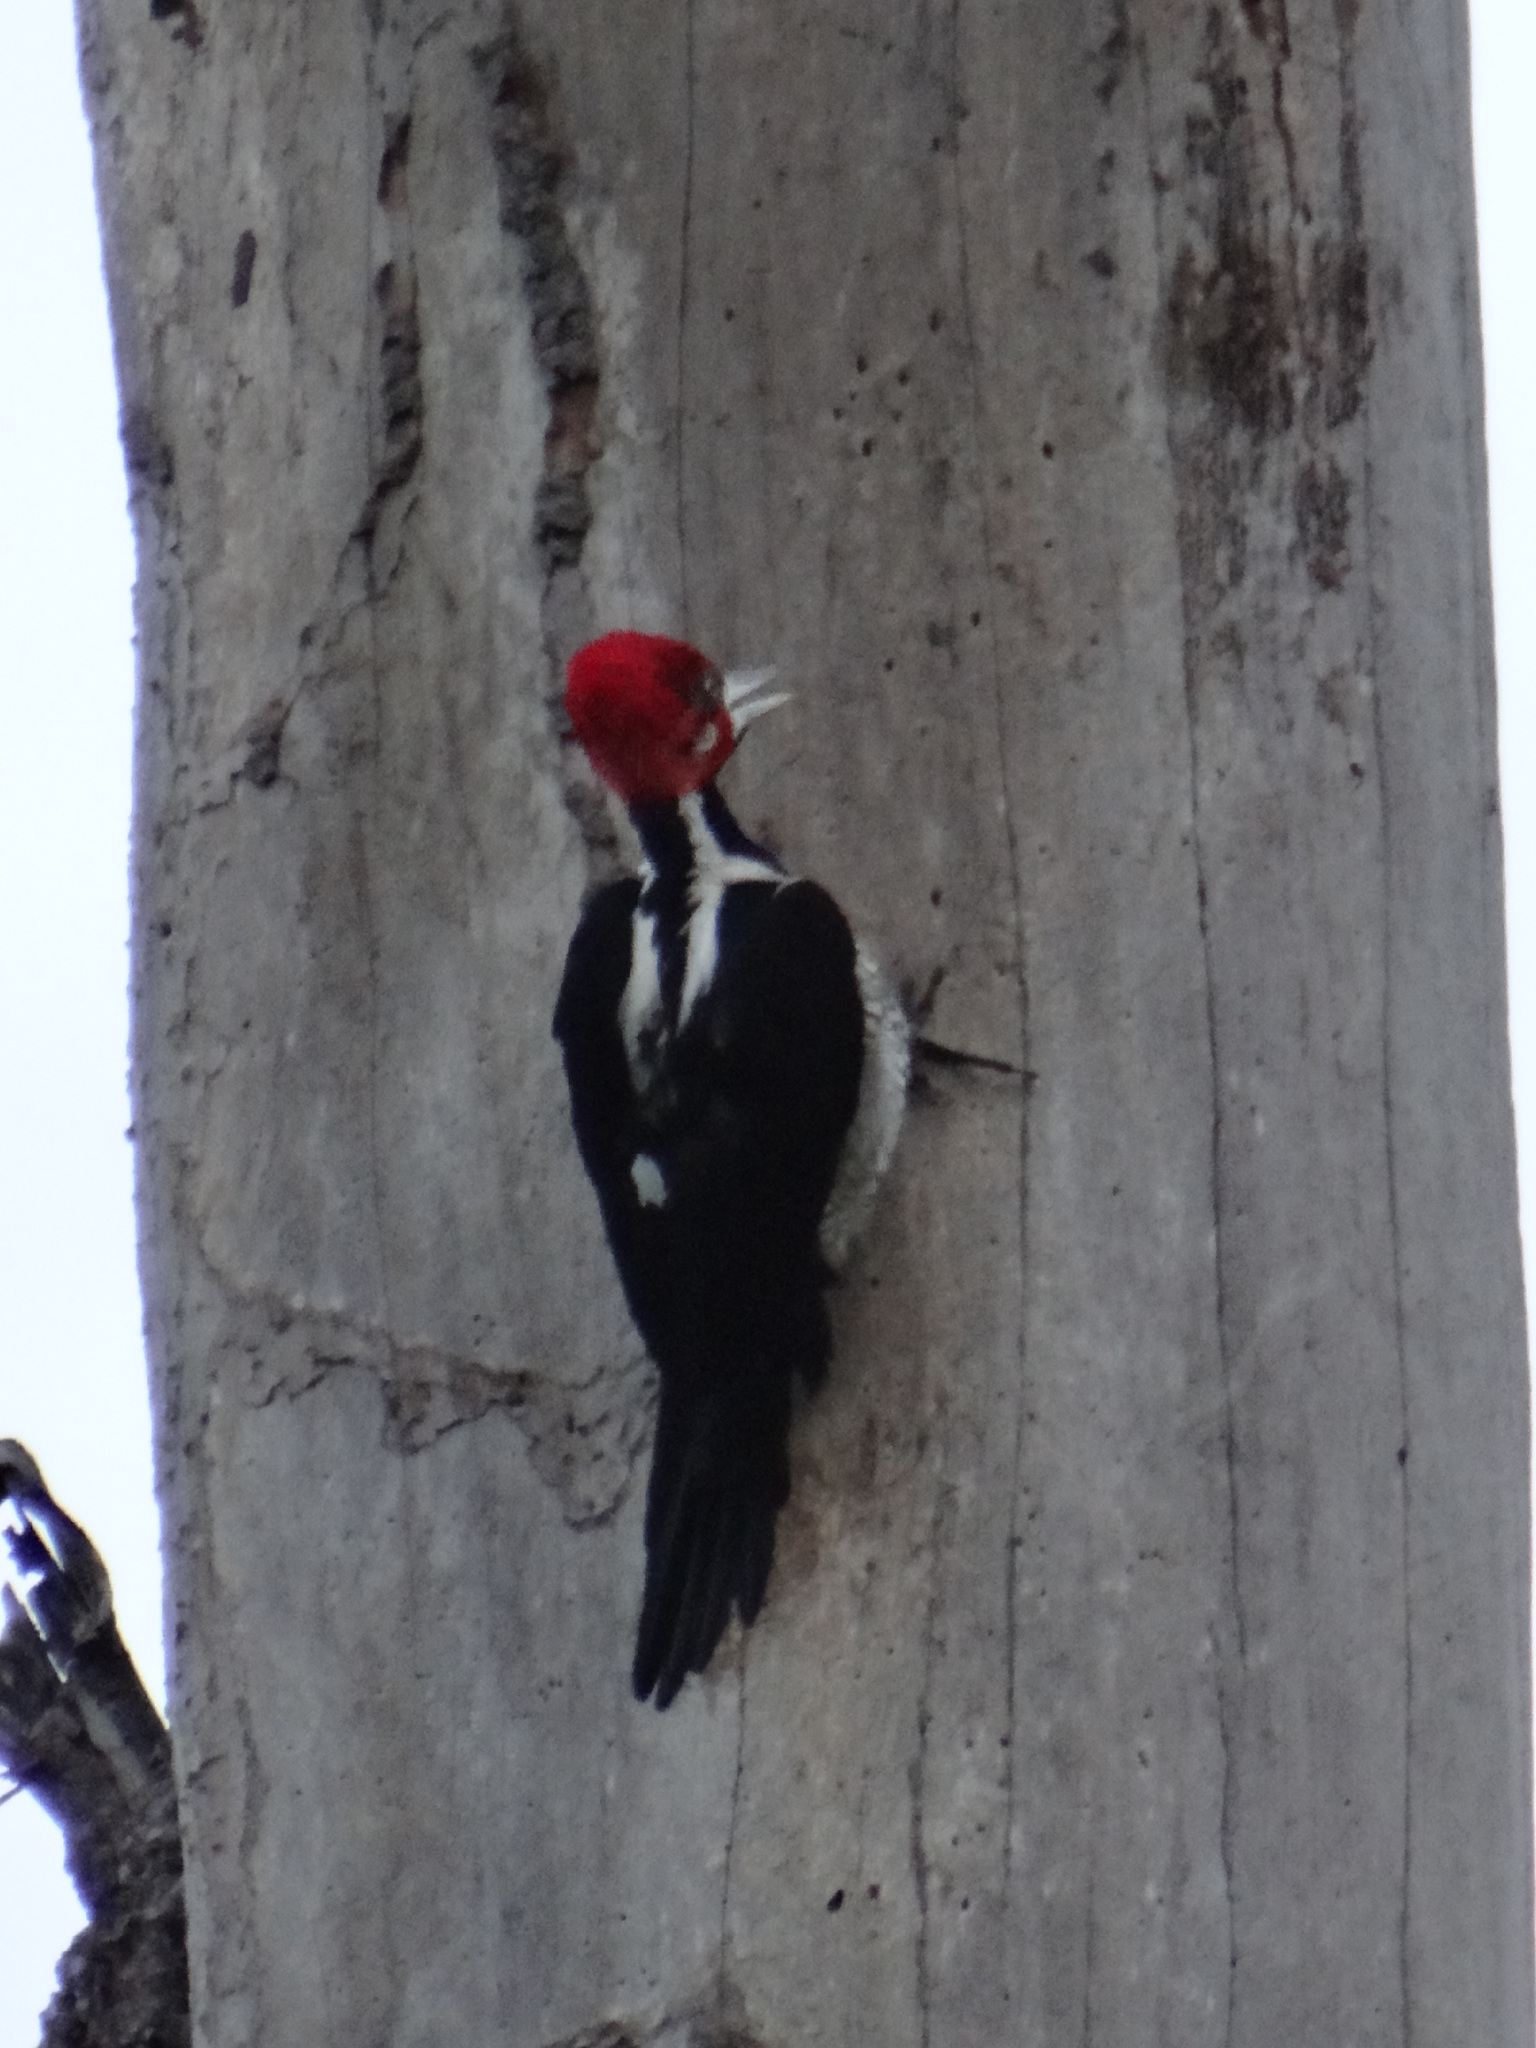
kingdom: Animalia
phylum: Chordata
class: Aves
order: Piciformes
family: Picidae
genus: Campephilus
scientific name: Campephilus melanoleucos
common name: Crimson-crested woodpecker
